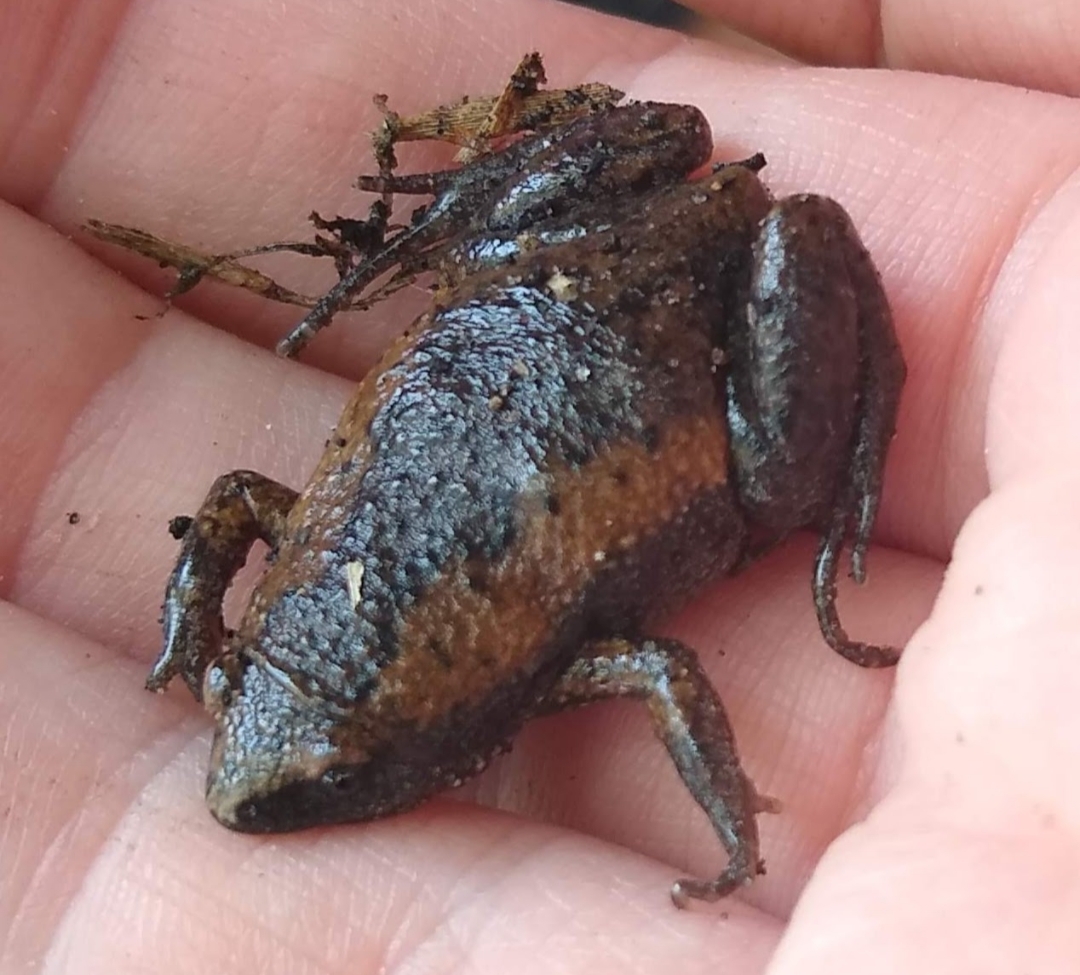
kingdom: Animalia
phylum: Chordata
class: Amphibia
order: Anura
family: Microhylidae
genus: Gastrophryne
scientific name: Gastrophryne carolinensis
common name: Eastern narrowmouth toad
